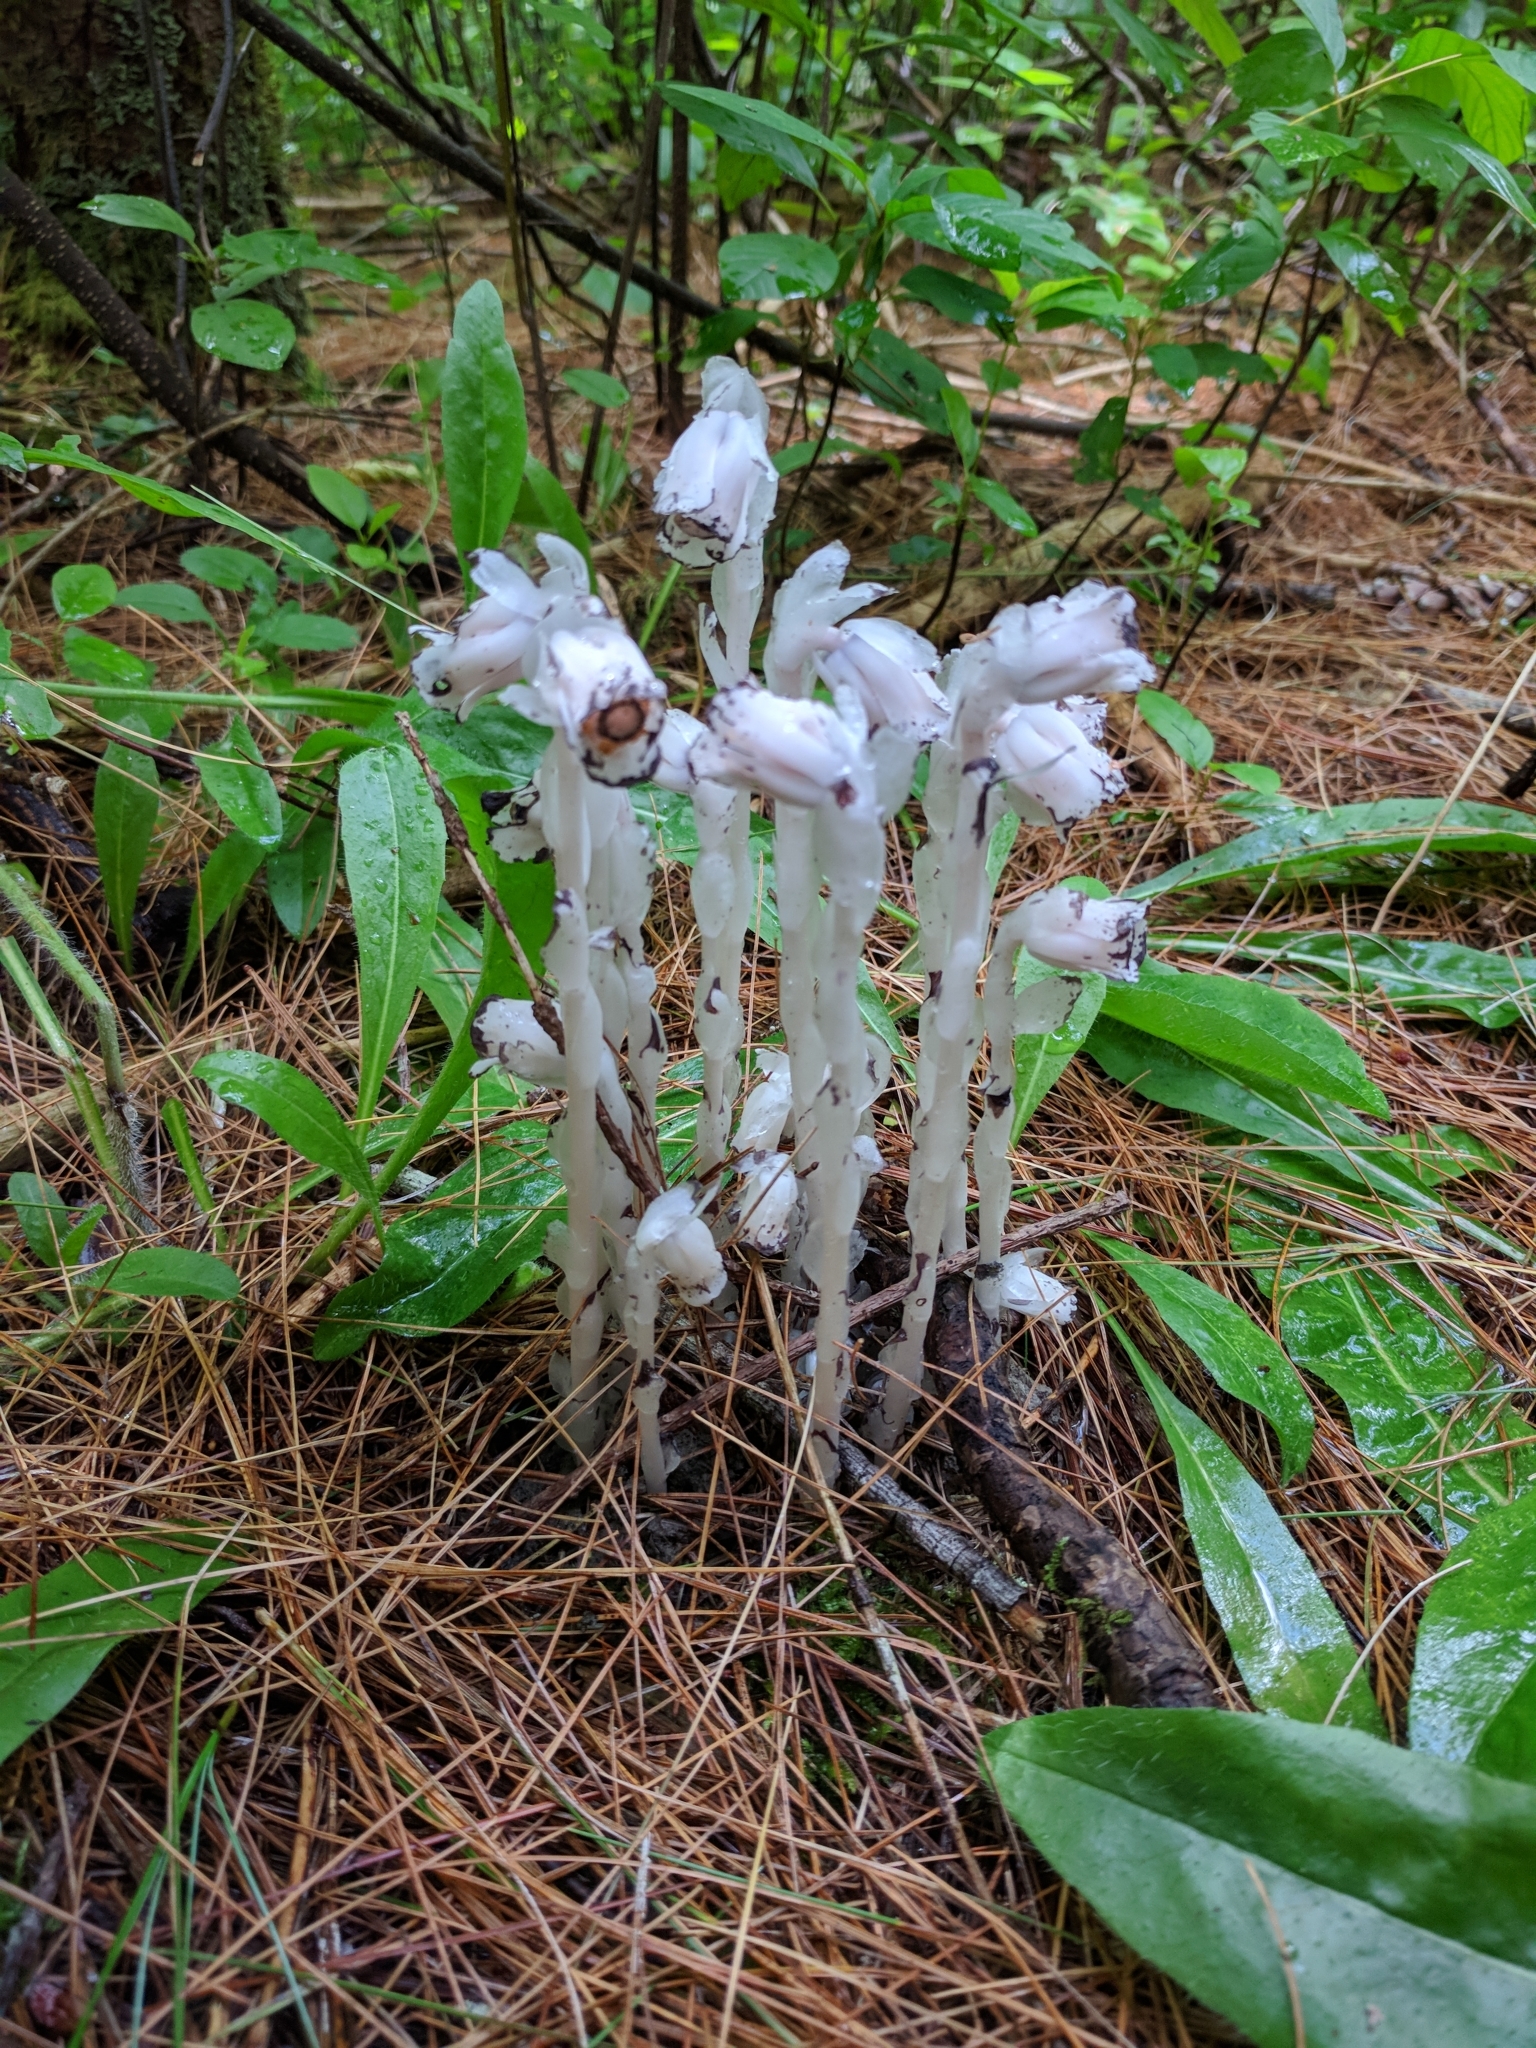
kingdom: Plantae
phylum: Tracheophyta
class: Magnoliopsida
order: Ericales
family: Ericaceae
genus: Monotropa
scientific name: Monotropa uniflora
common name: Convulsion root
